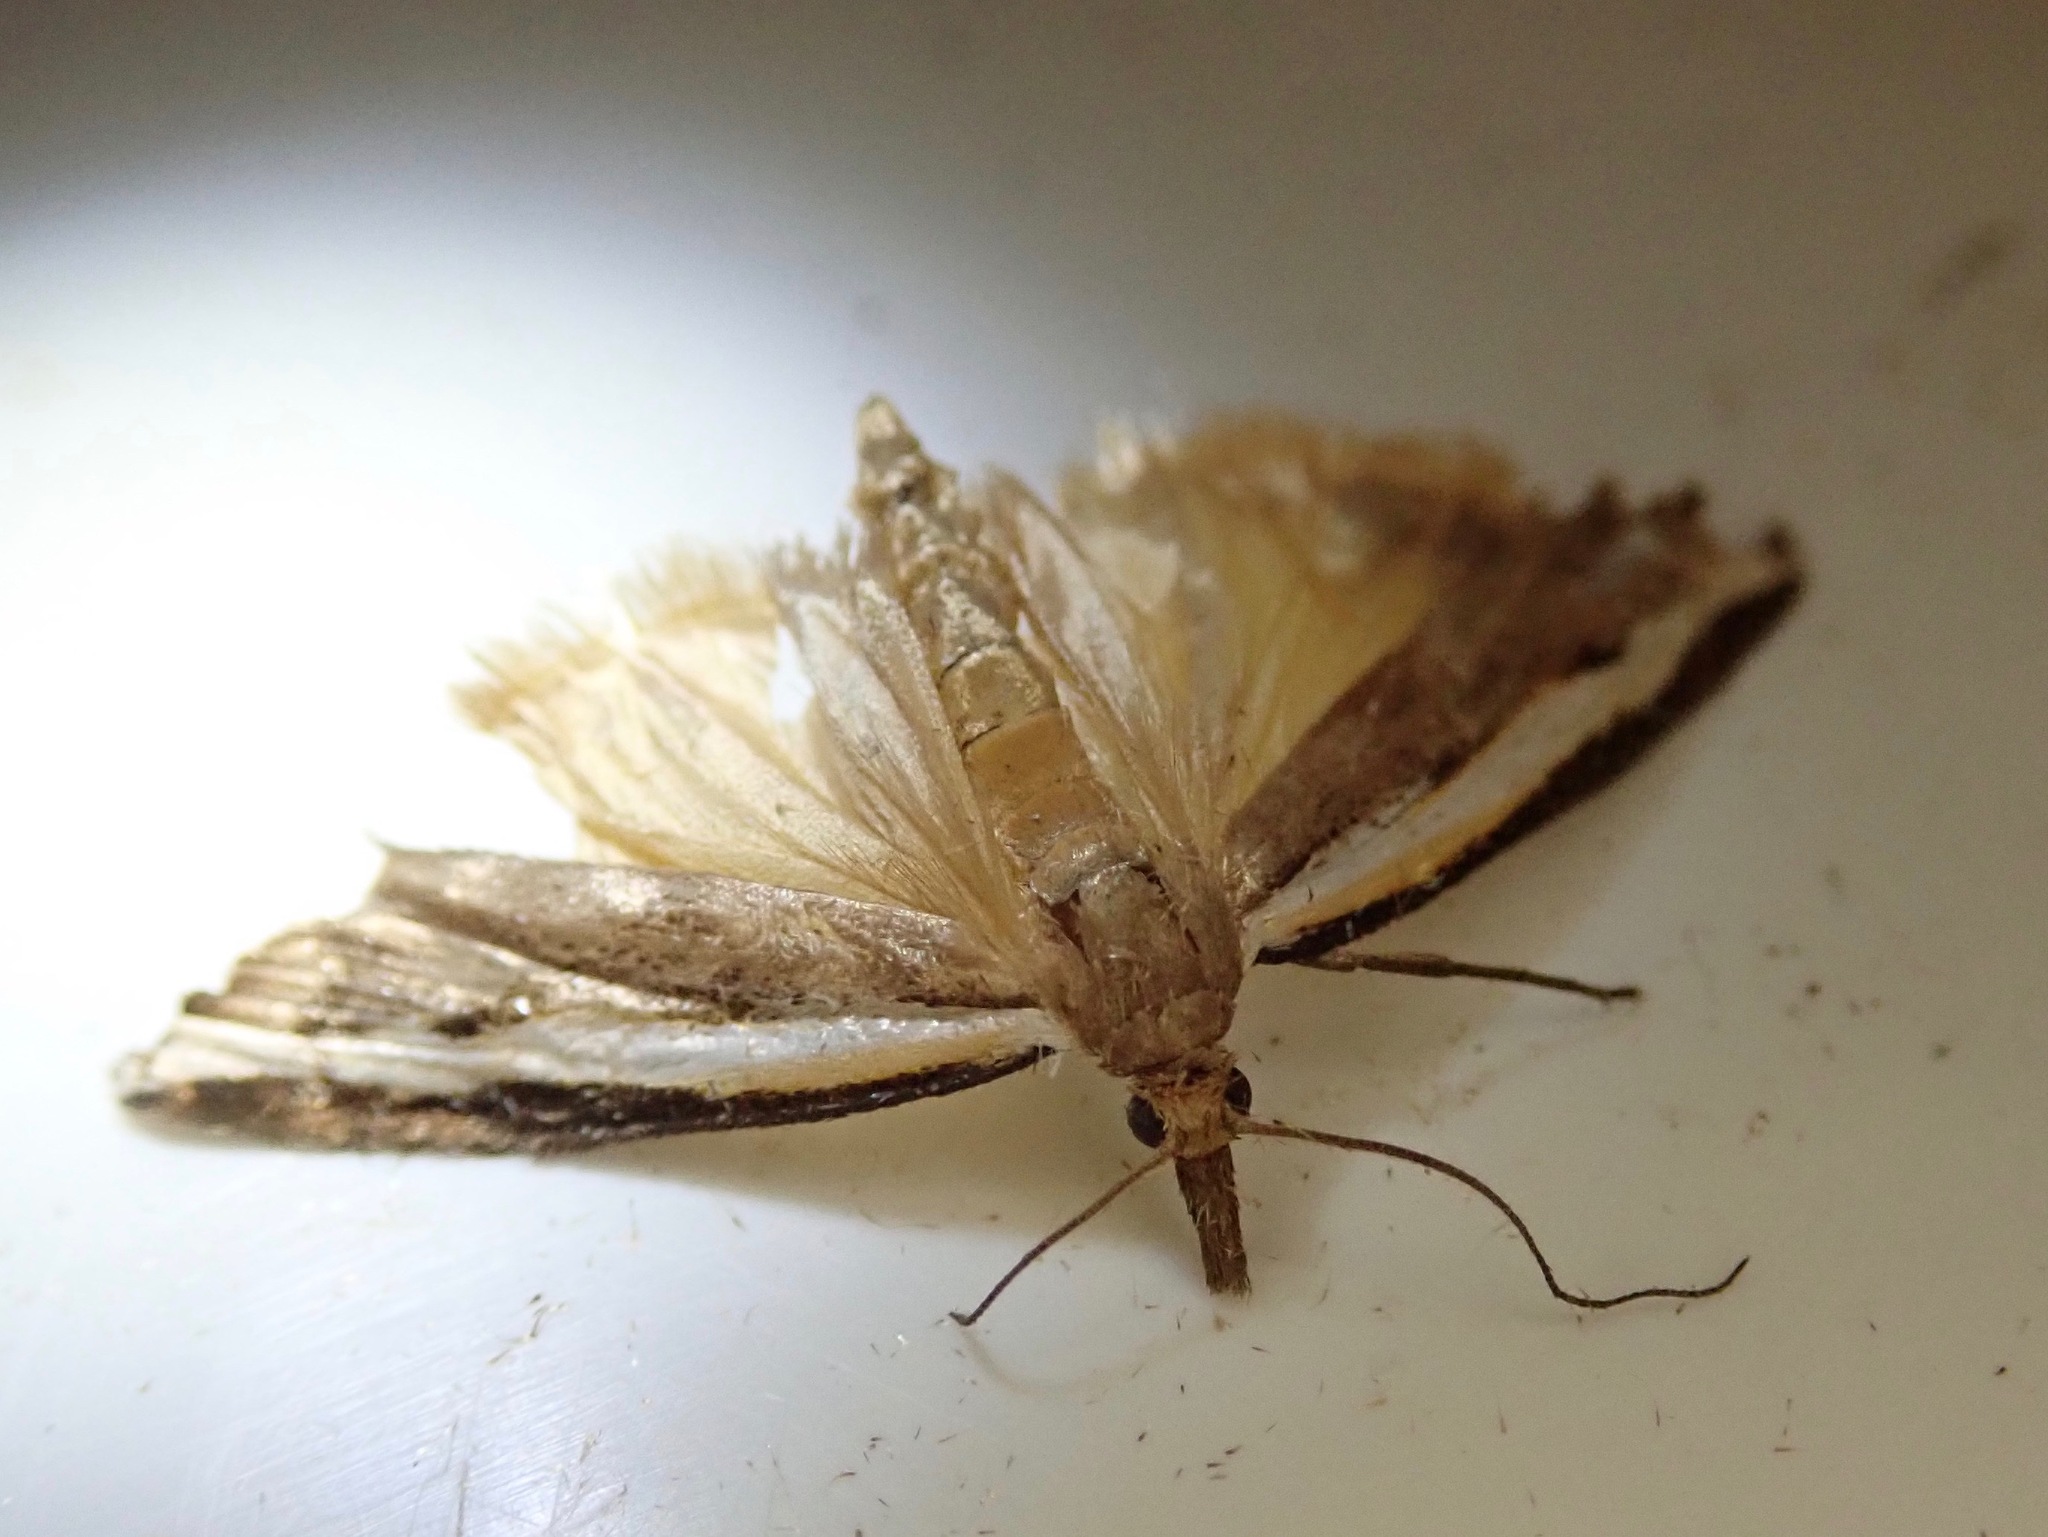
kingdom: Animalia
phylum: Arthropoda
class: Insecta
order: Lepidoptera
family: Crambidae
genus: Orocrambus
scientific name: Orocrambus flexuosellus
